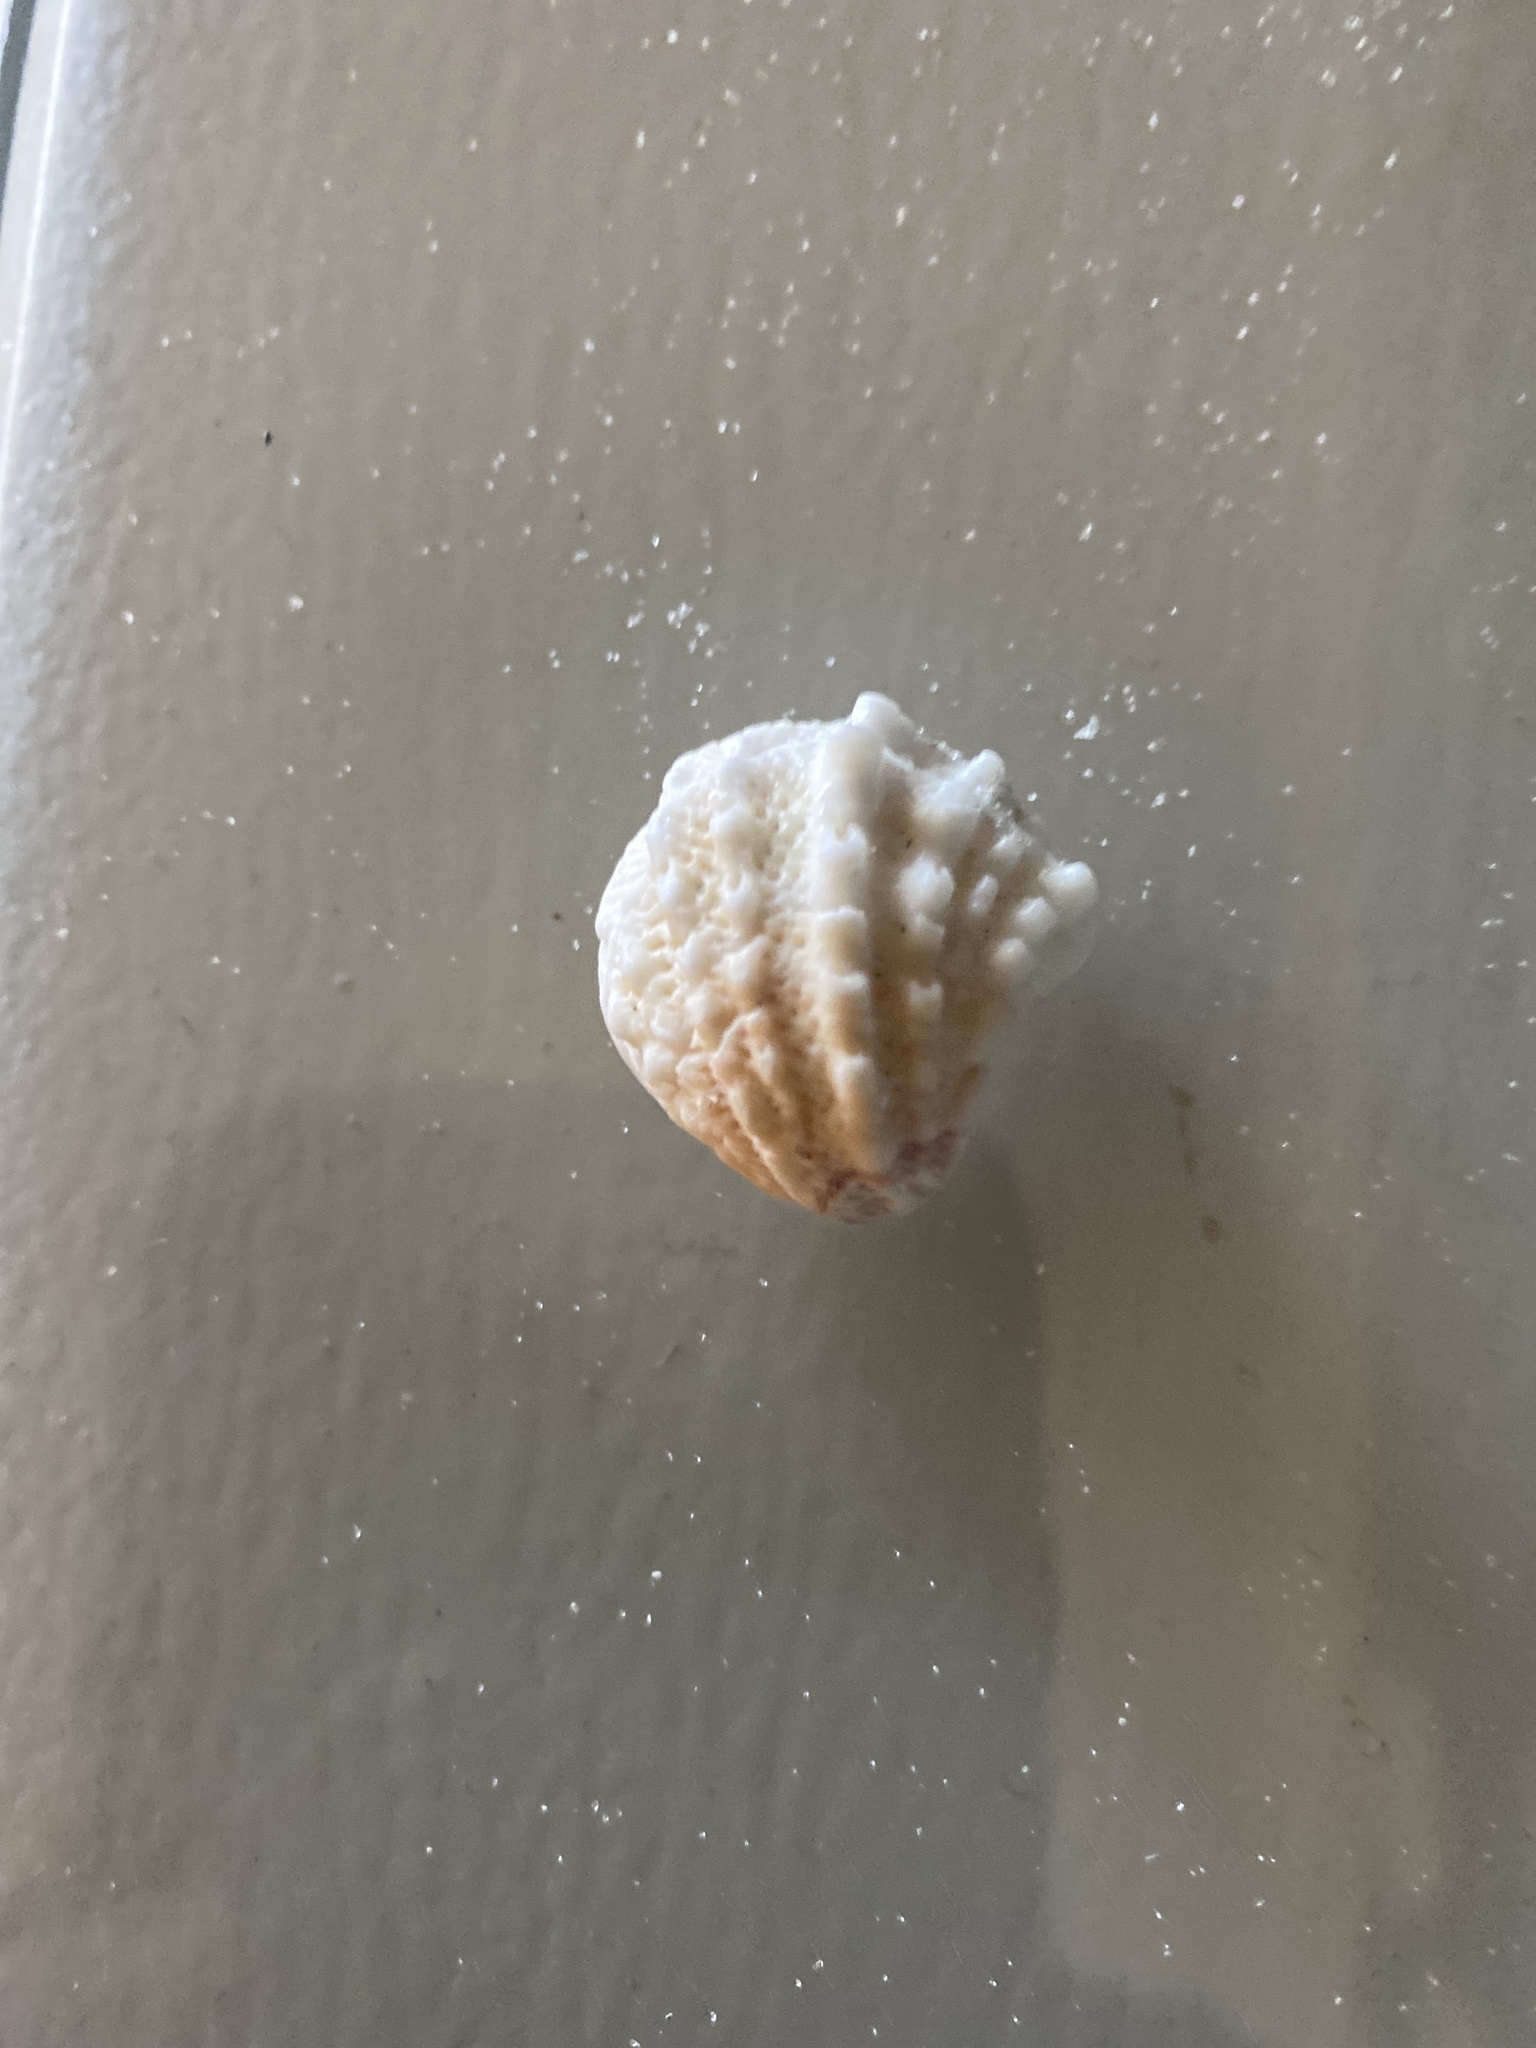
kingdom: Animalia
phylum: Mollusca
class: Bivalvia
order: Venerida
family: Chamidae
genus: Arcinella
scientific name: Arcinella cornuta
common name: Florida spiny jewel box
